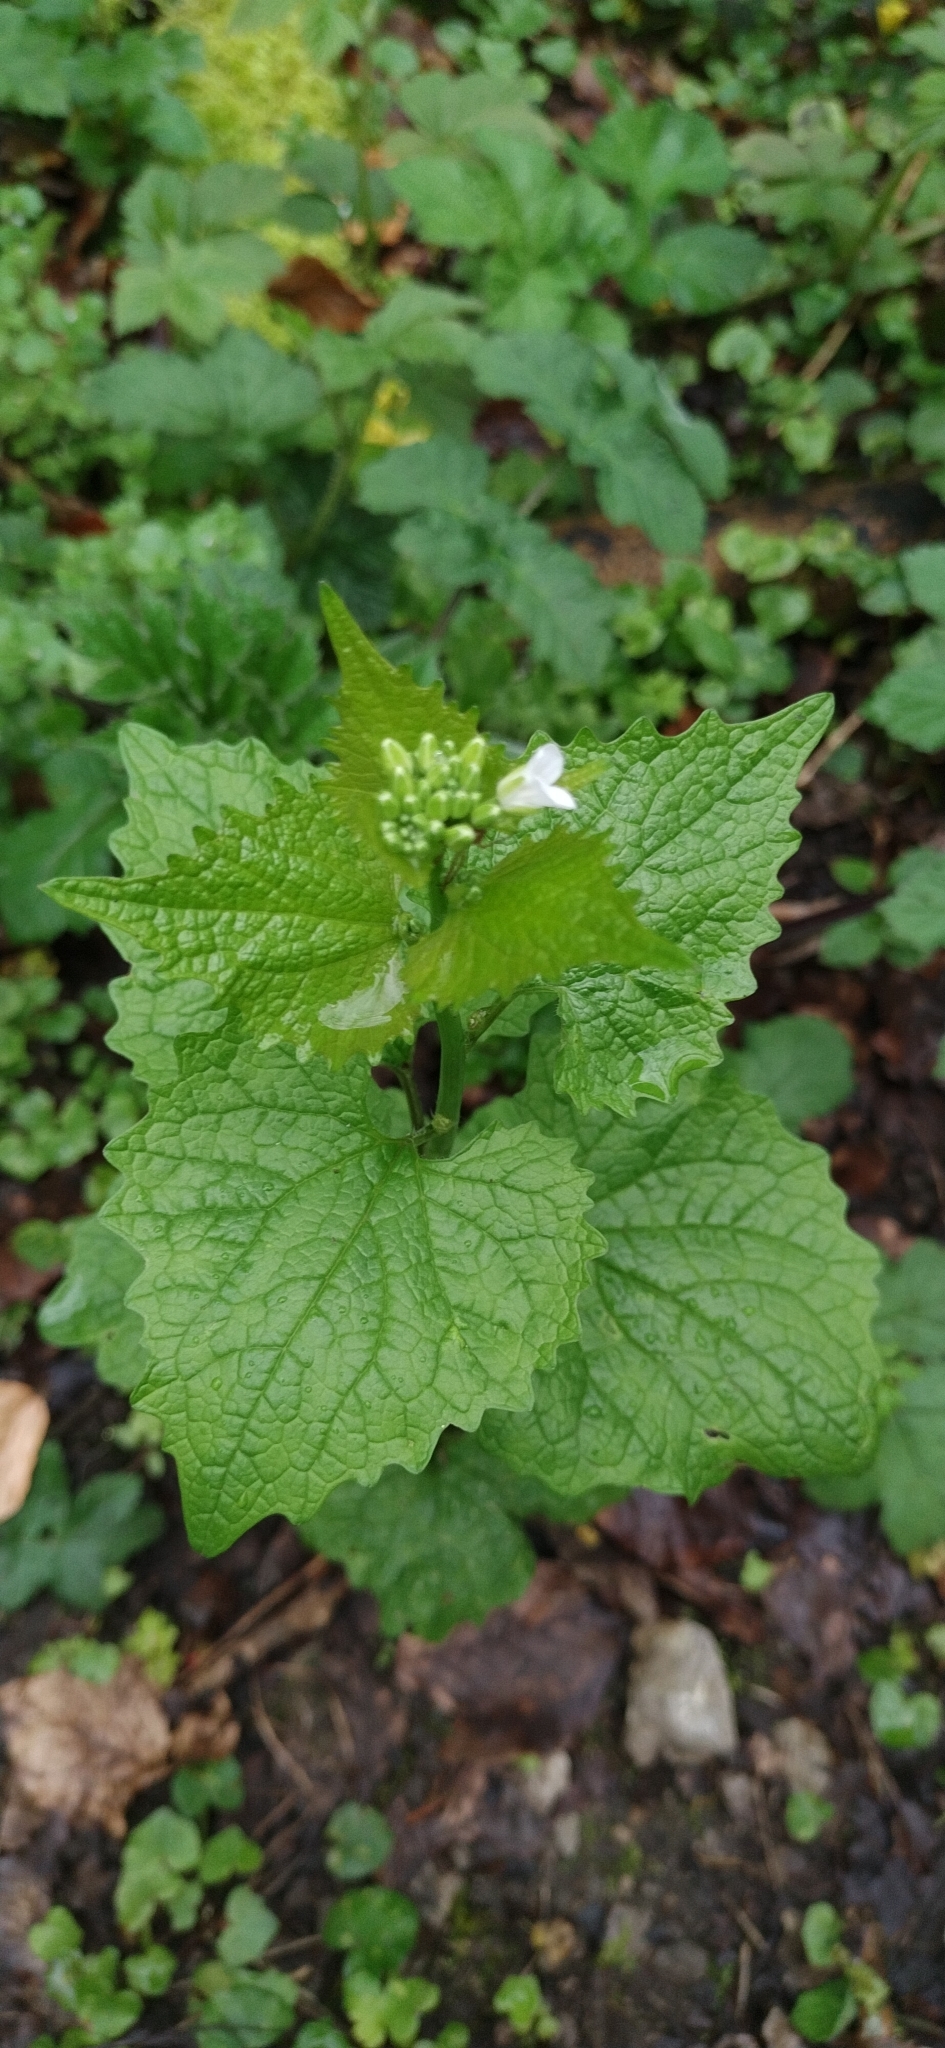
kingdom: Plantae
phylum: Tracheophyta
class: Magnoliopsida
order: Brassicales
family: Brassicaceae
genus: Alliaria
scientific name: Alliaria petiolata
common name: Garlic mustard
